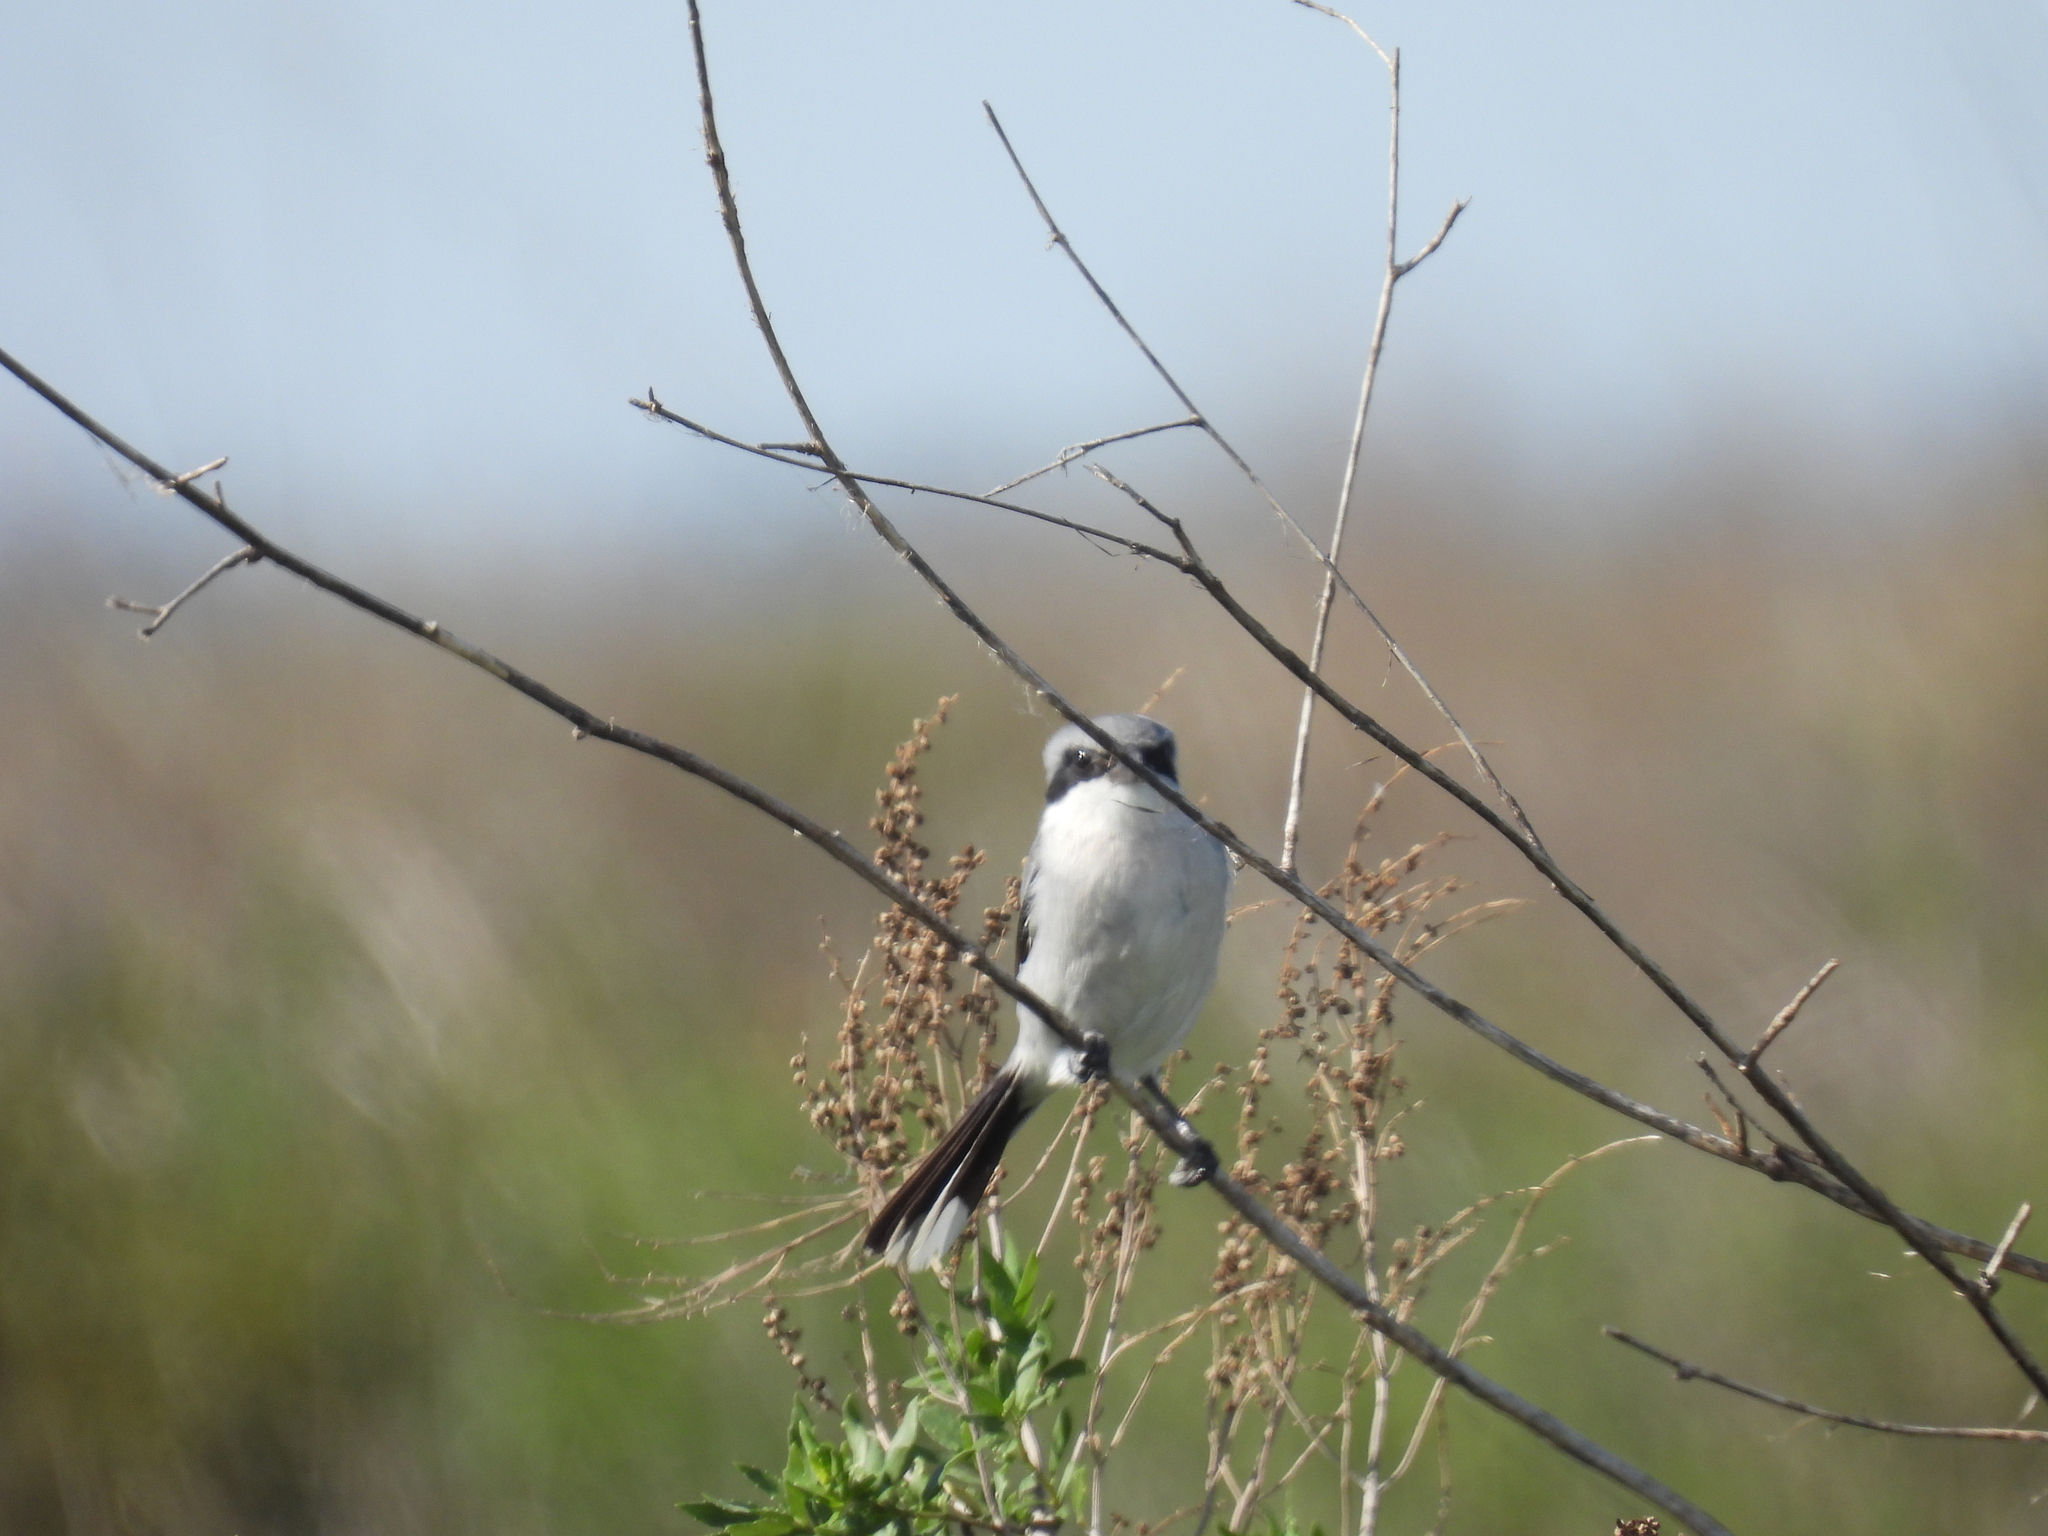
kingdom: Animalia
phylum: Chordata
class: Aves
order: Passeriformes
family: Laniidae
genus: Lanius
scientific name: Lanius ludovicianus
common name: Loggerhead shrike
